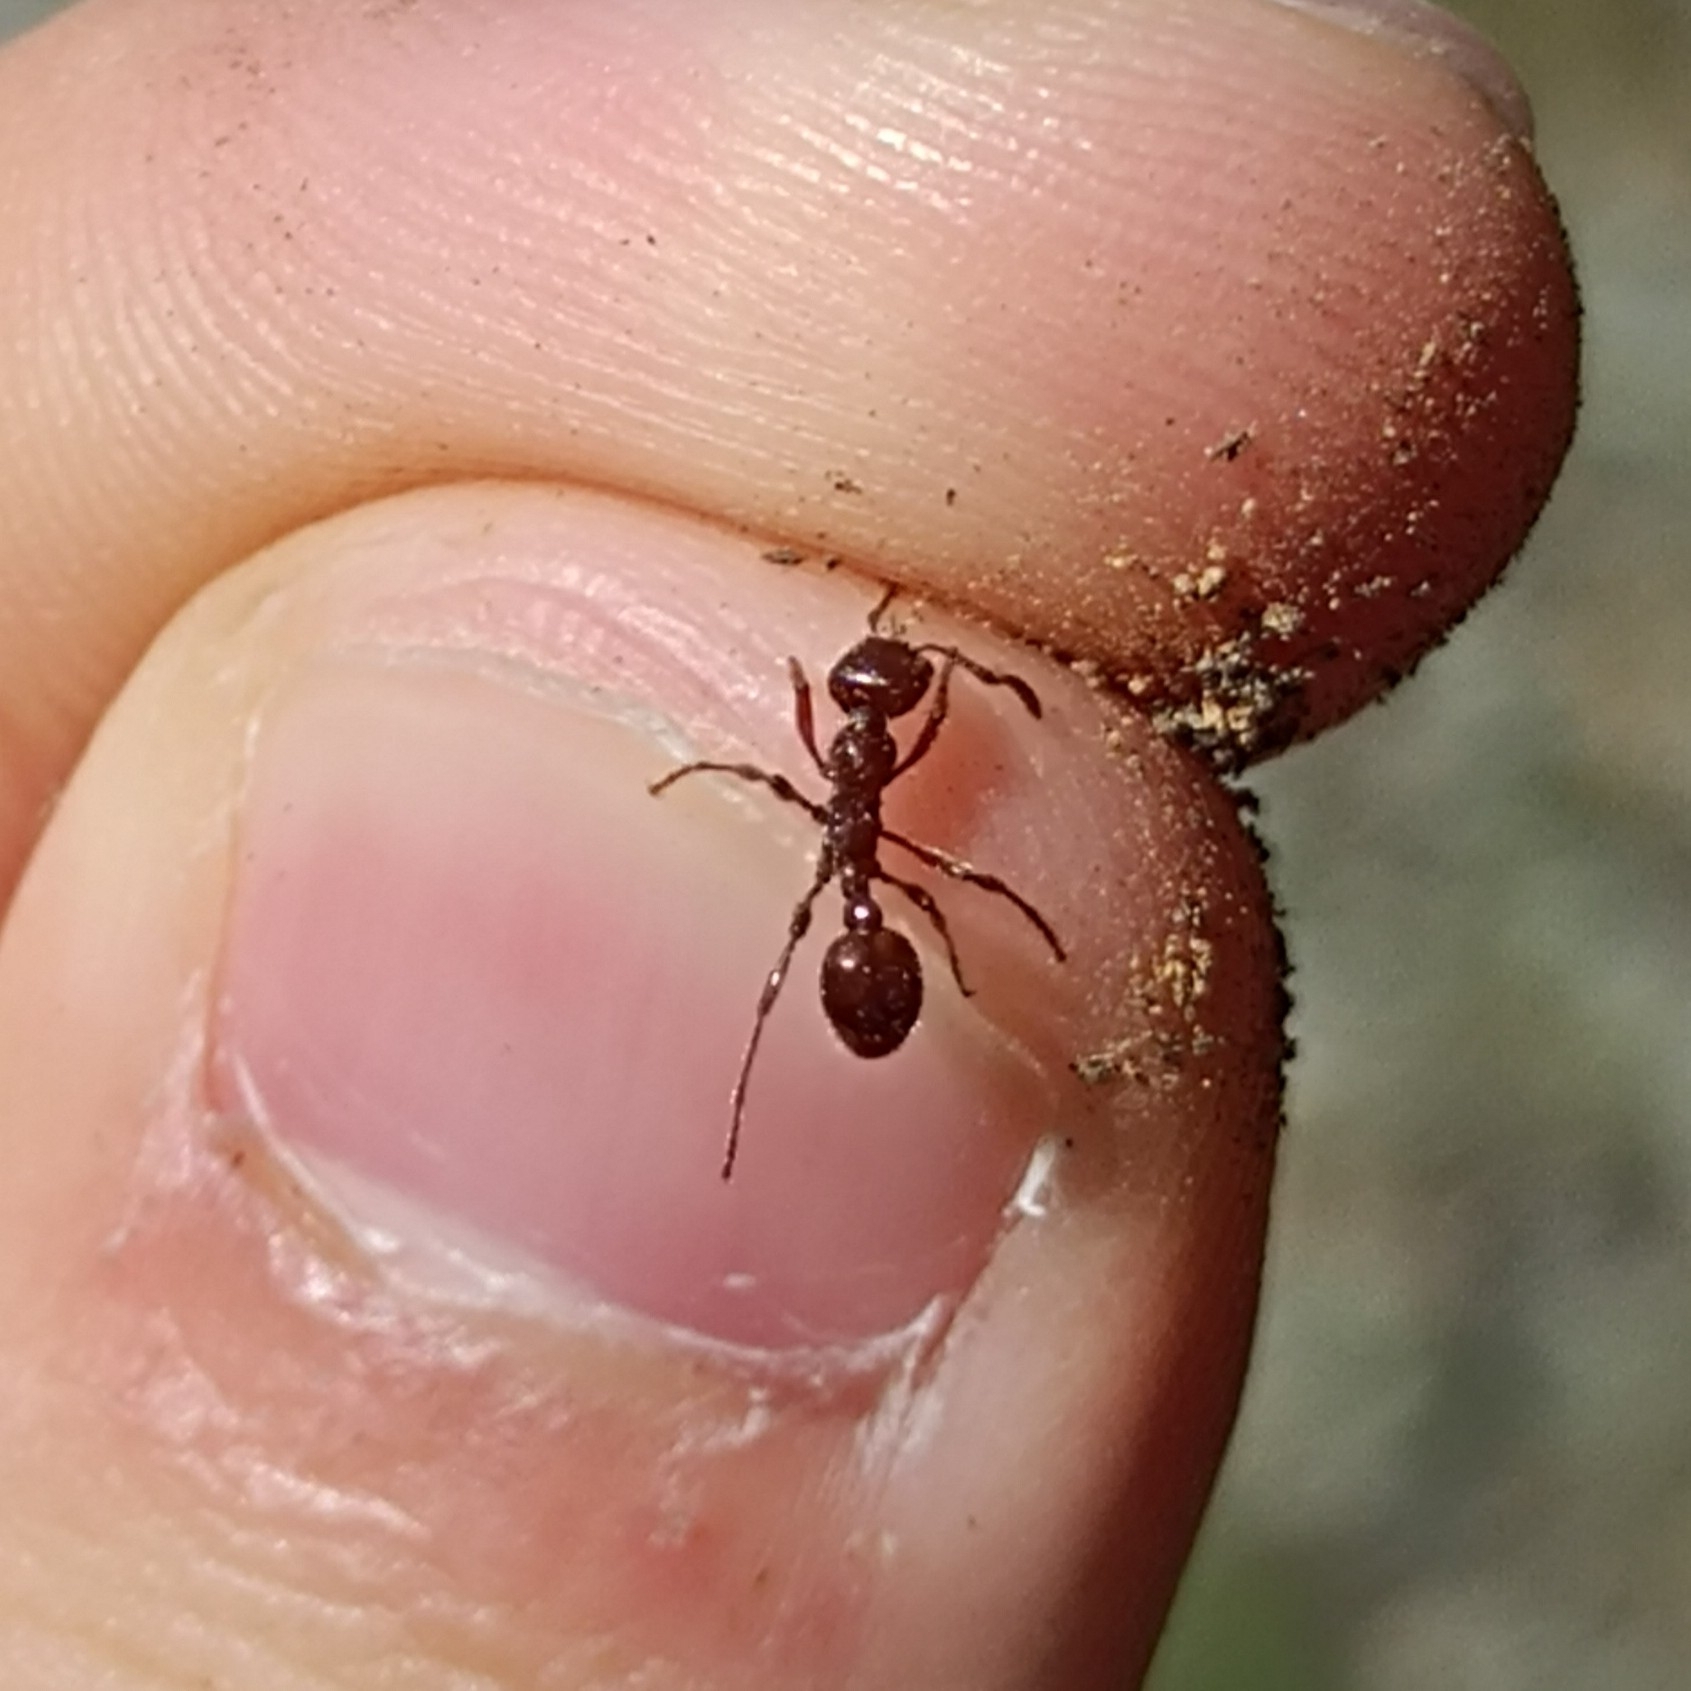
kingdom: Animalia
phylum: Arthropoda
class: Insecta
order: Hymenoptera
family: Formicidae
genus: Manica
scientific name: Manica rubida
